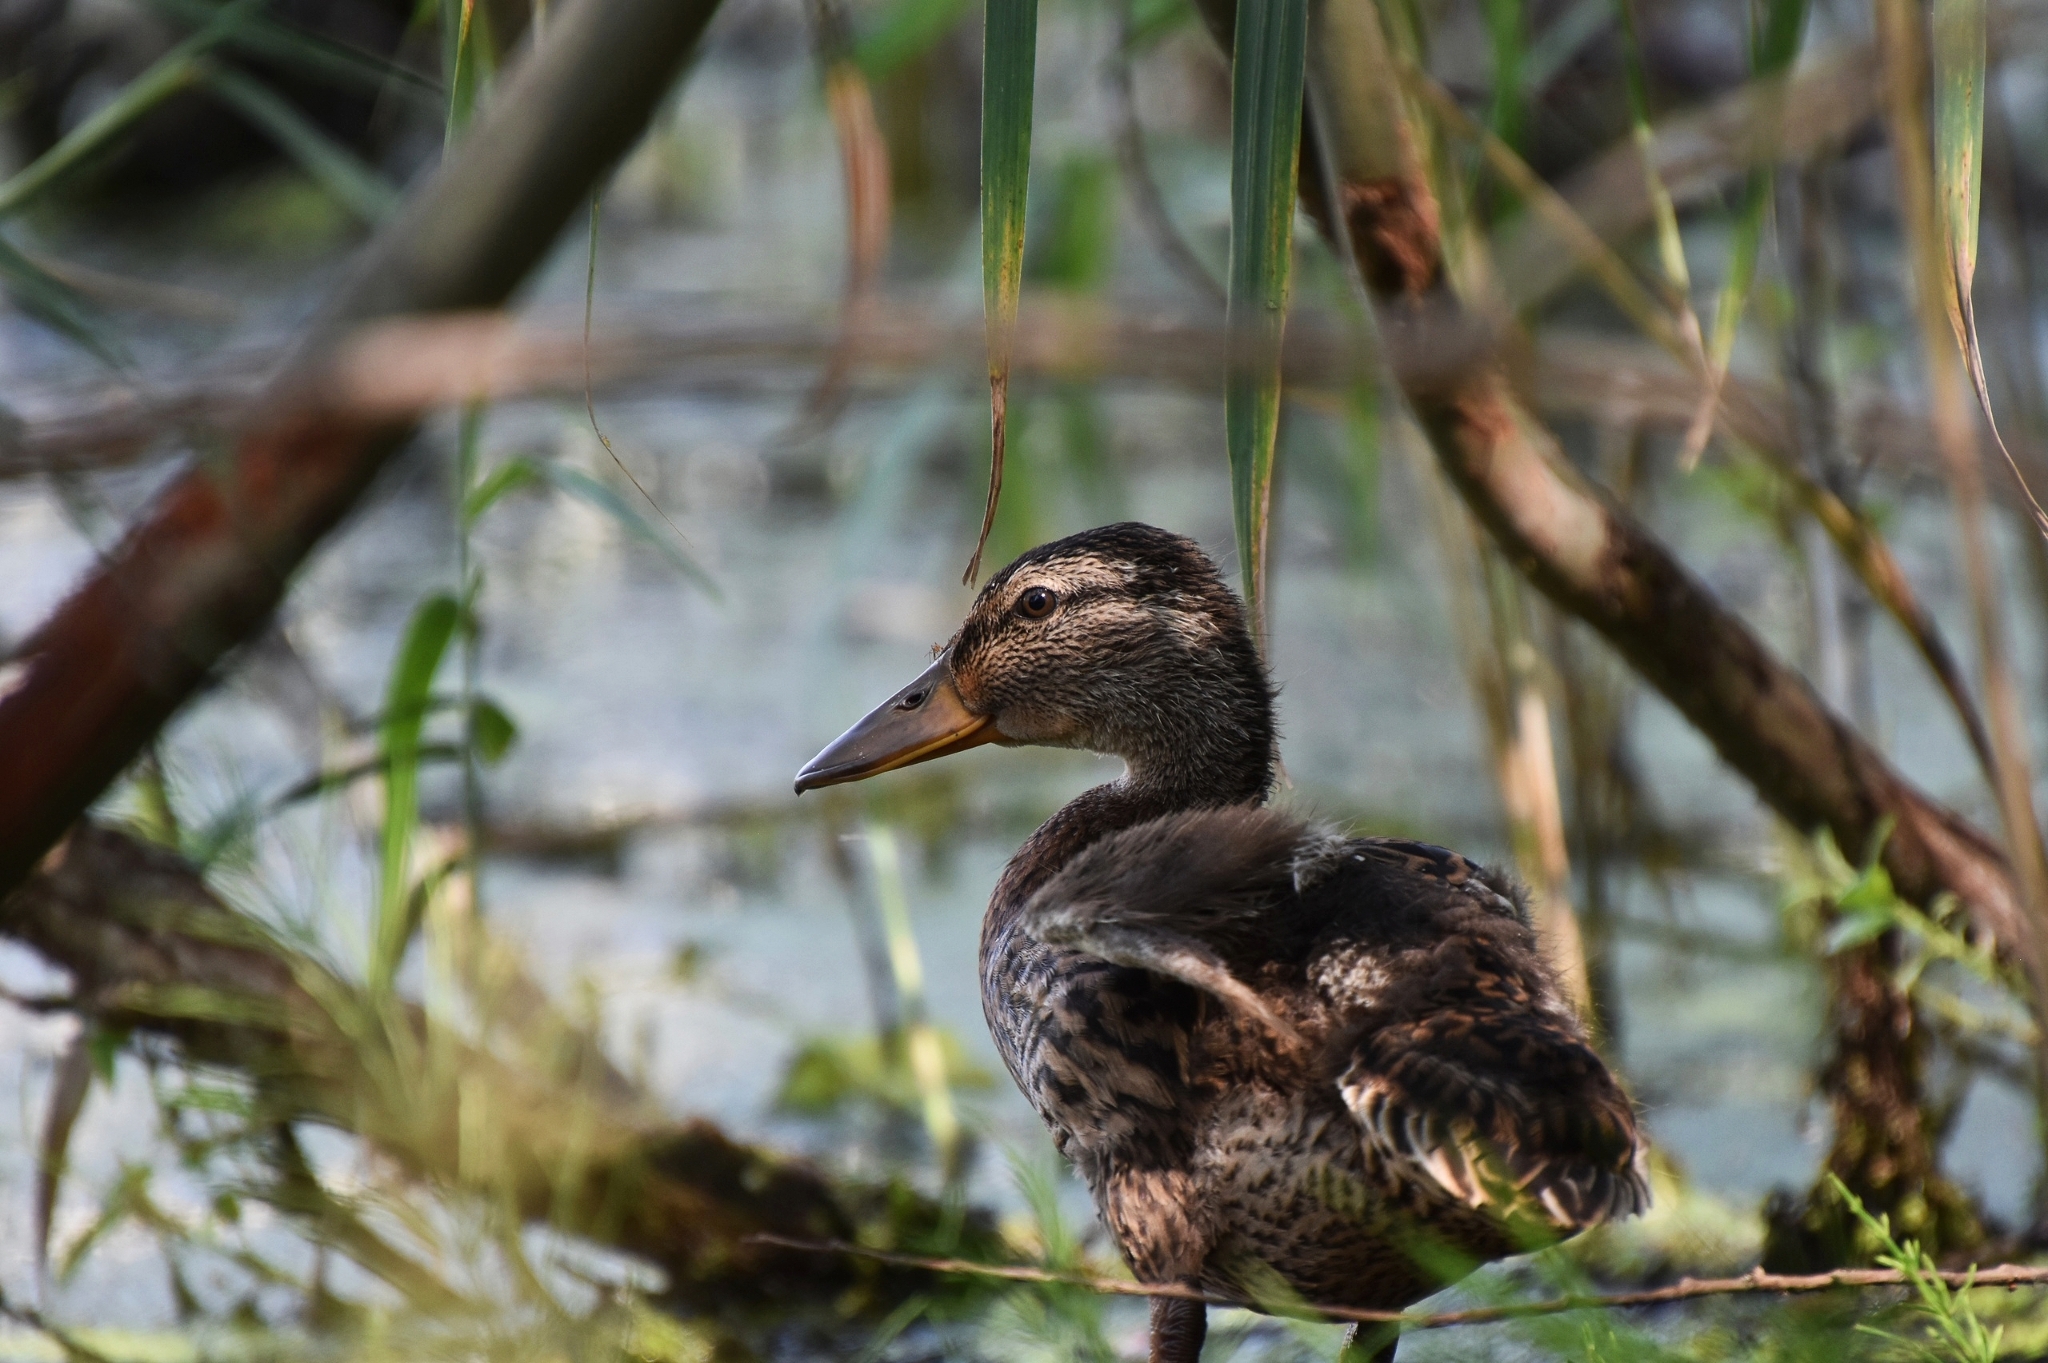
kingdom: Animalia
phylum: Chordata
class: Aves
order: Anseriformes
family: Anatidae
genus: Anas
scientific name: Anas platyrhynchos
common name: Mallard
